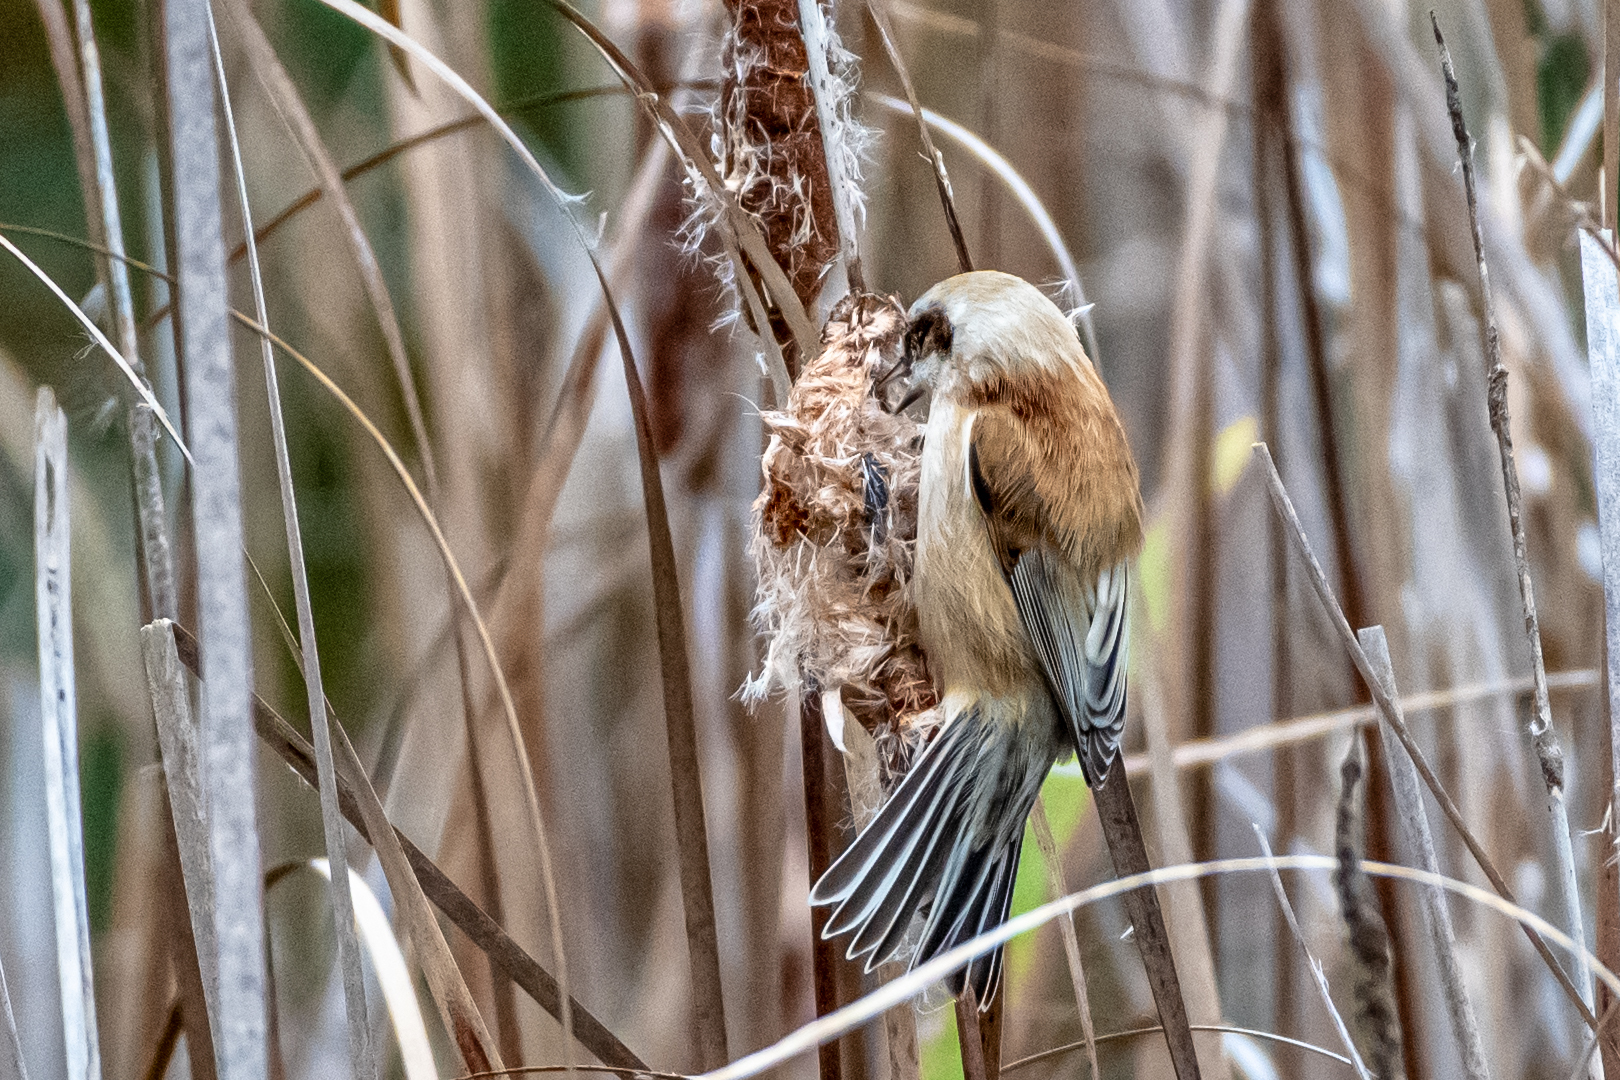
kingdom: Animalia
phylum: Chordata
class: Aves
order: Passeriformes
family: Remizidae
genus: Remiz
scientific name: Remiz pendulinus
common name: Eurasian penduline tit
